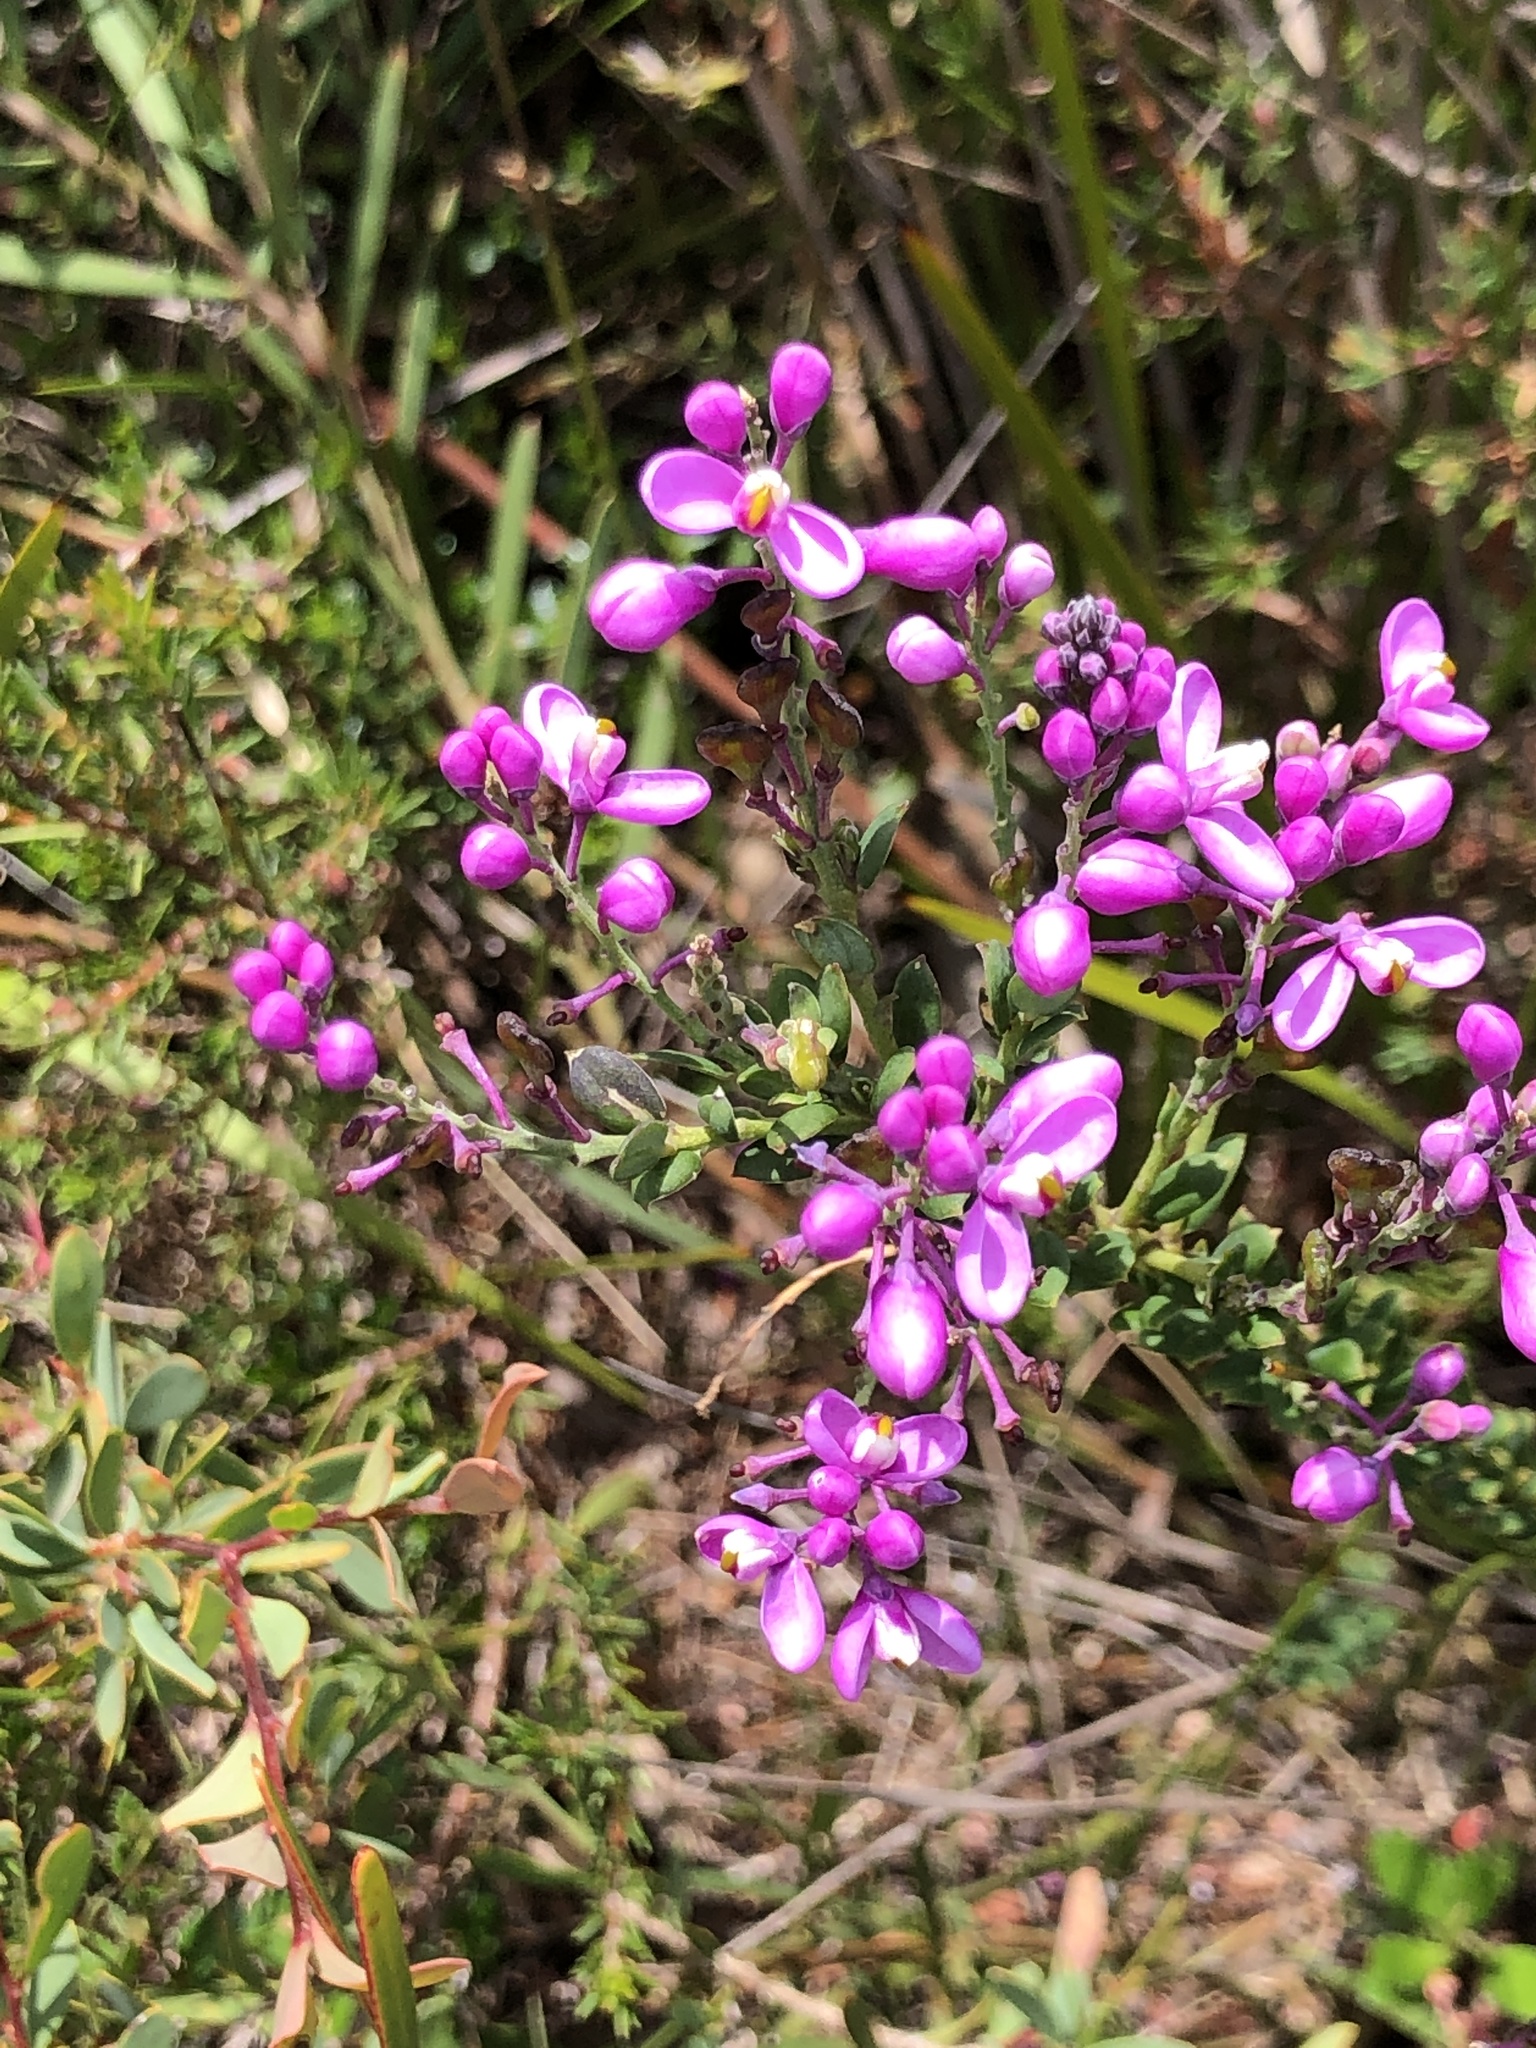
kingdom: Plantae
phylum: Tracheophyta
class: Magnoliopsida
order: Fabales
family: Polygalaceae
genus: Comesperma
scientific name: Comesperma ericinum
